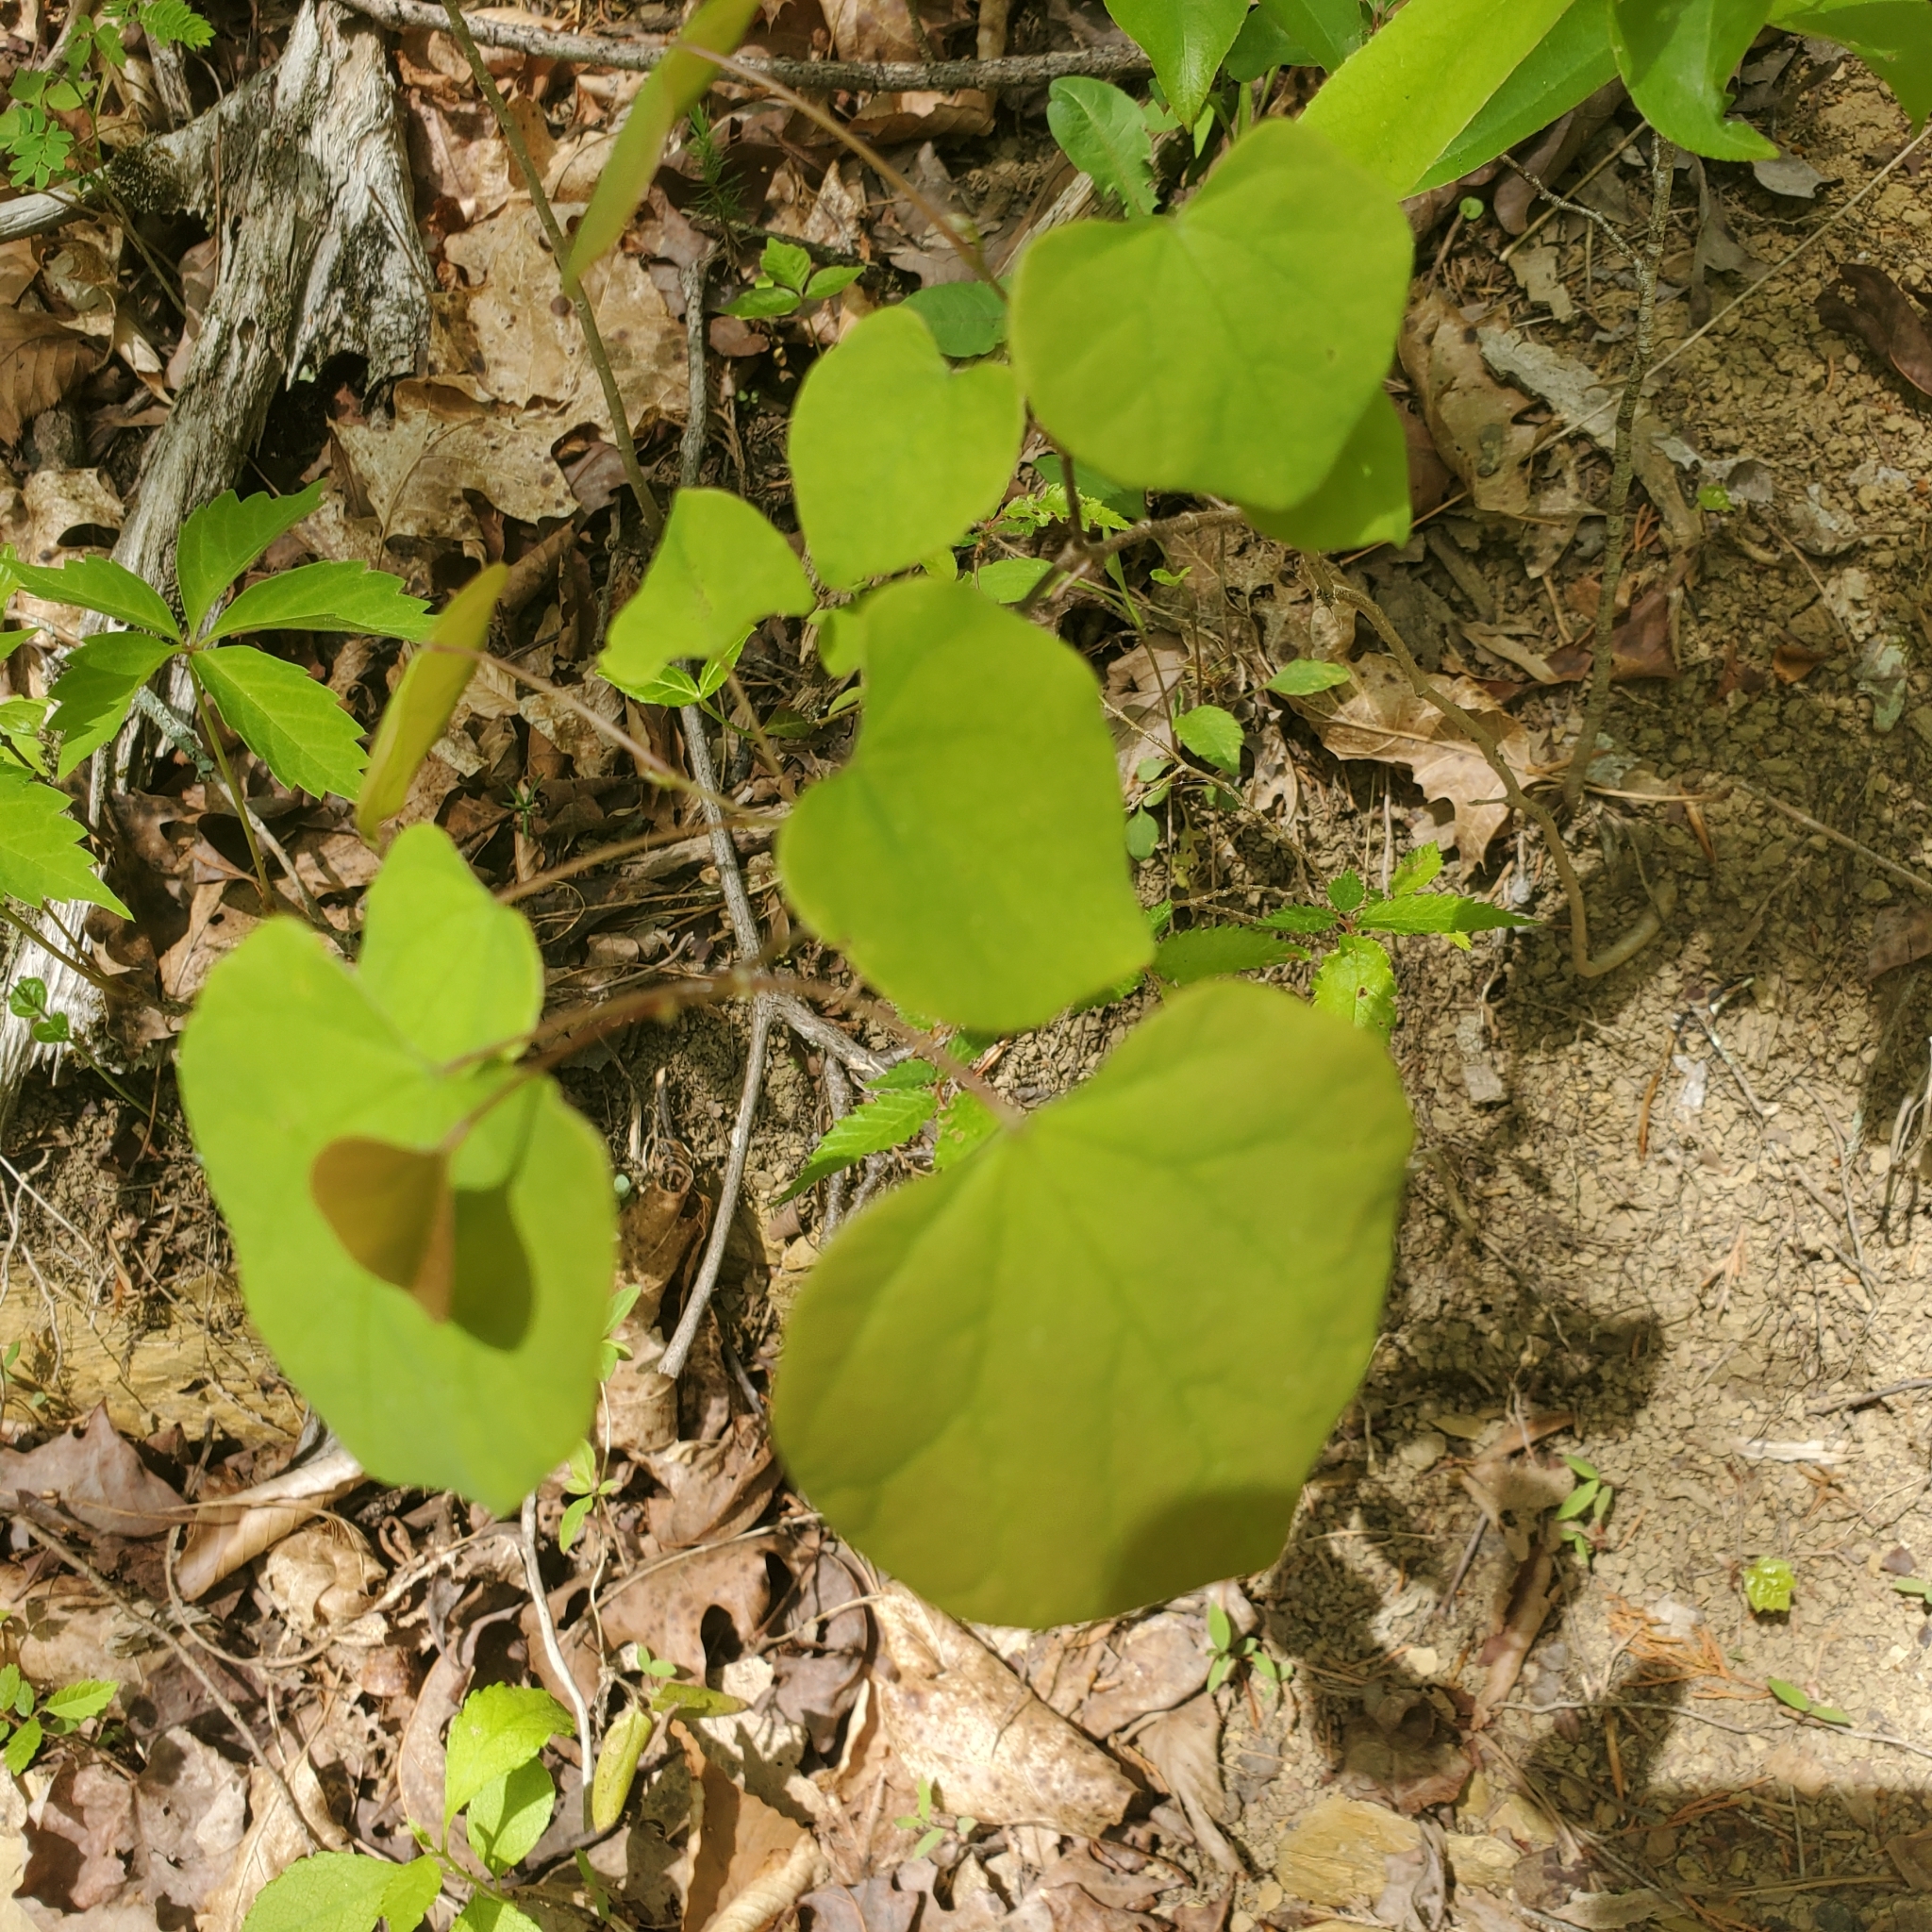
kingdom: Plantae
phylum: Tracheophyta
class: Magnoliopsida
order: Fabales
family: Fabaceae
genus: Cercis
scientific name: Cercis canadensis
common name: Eastern redbud
